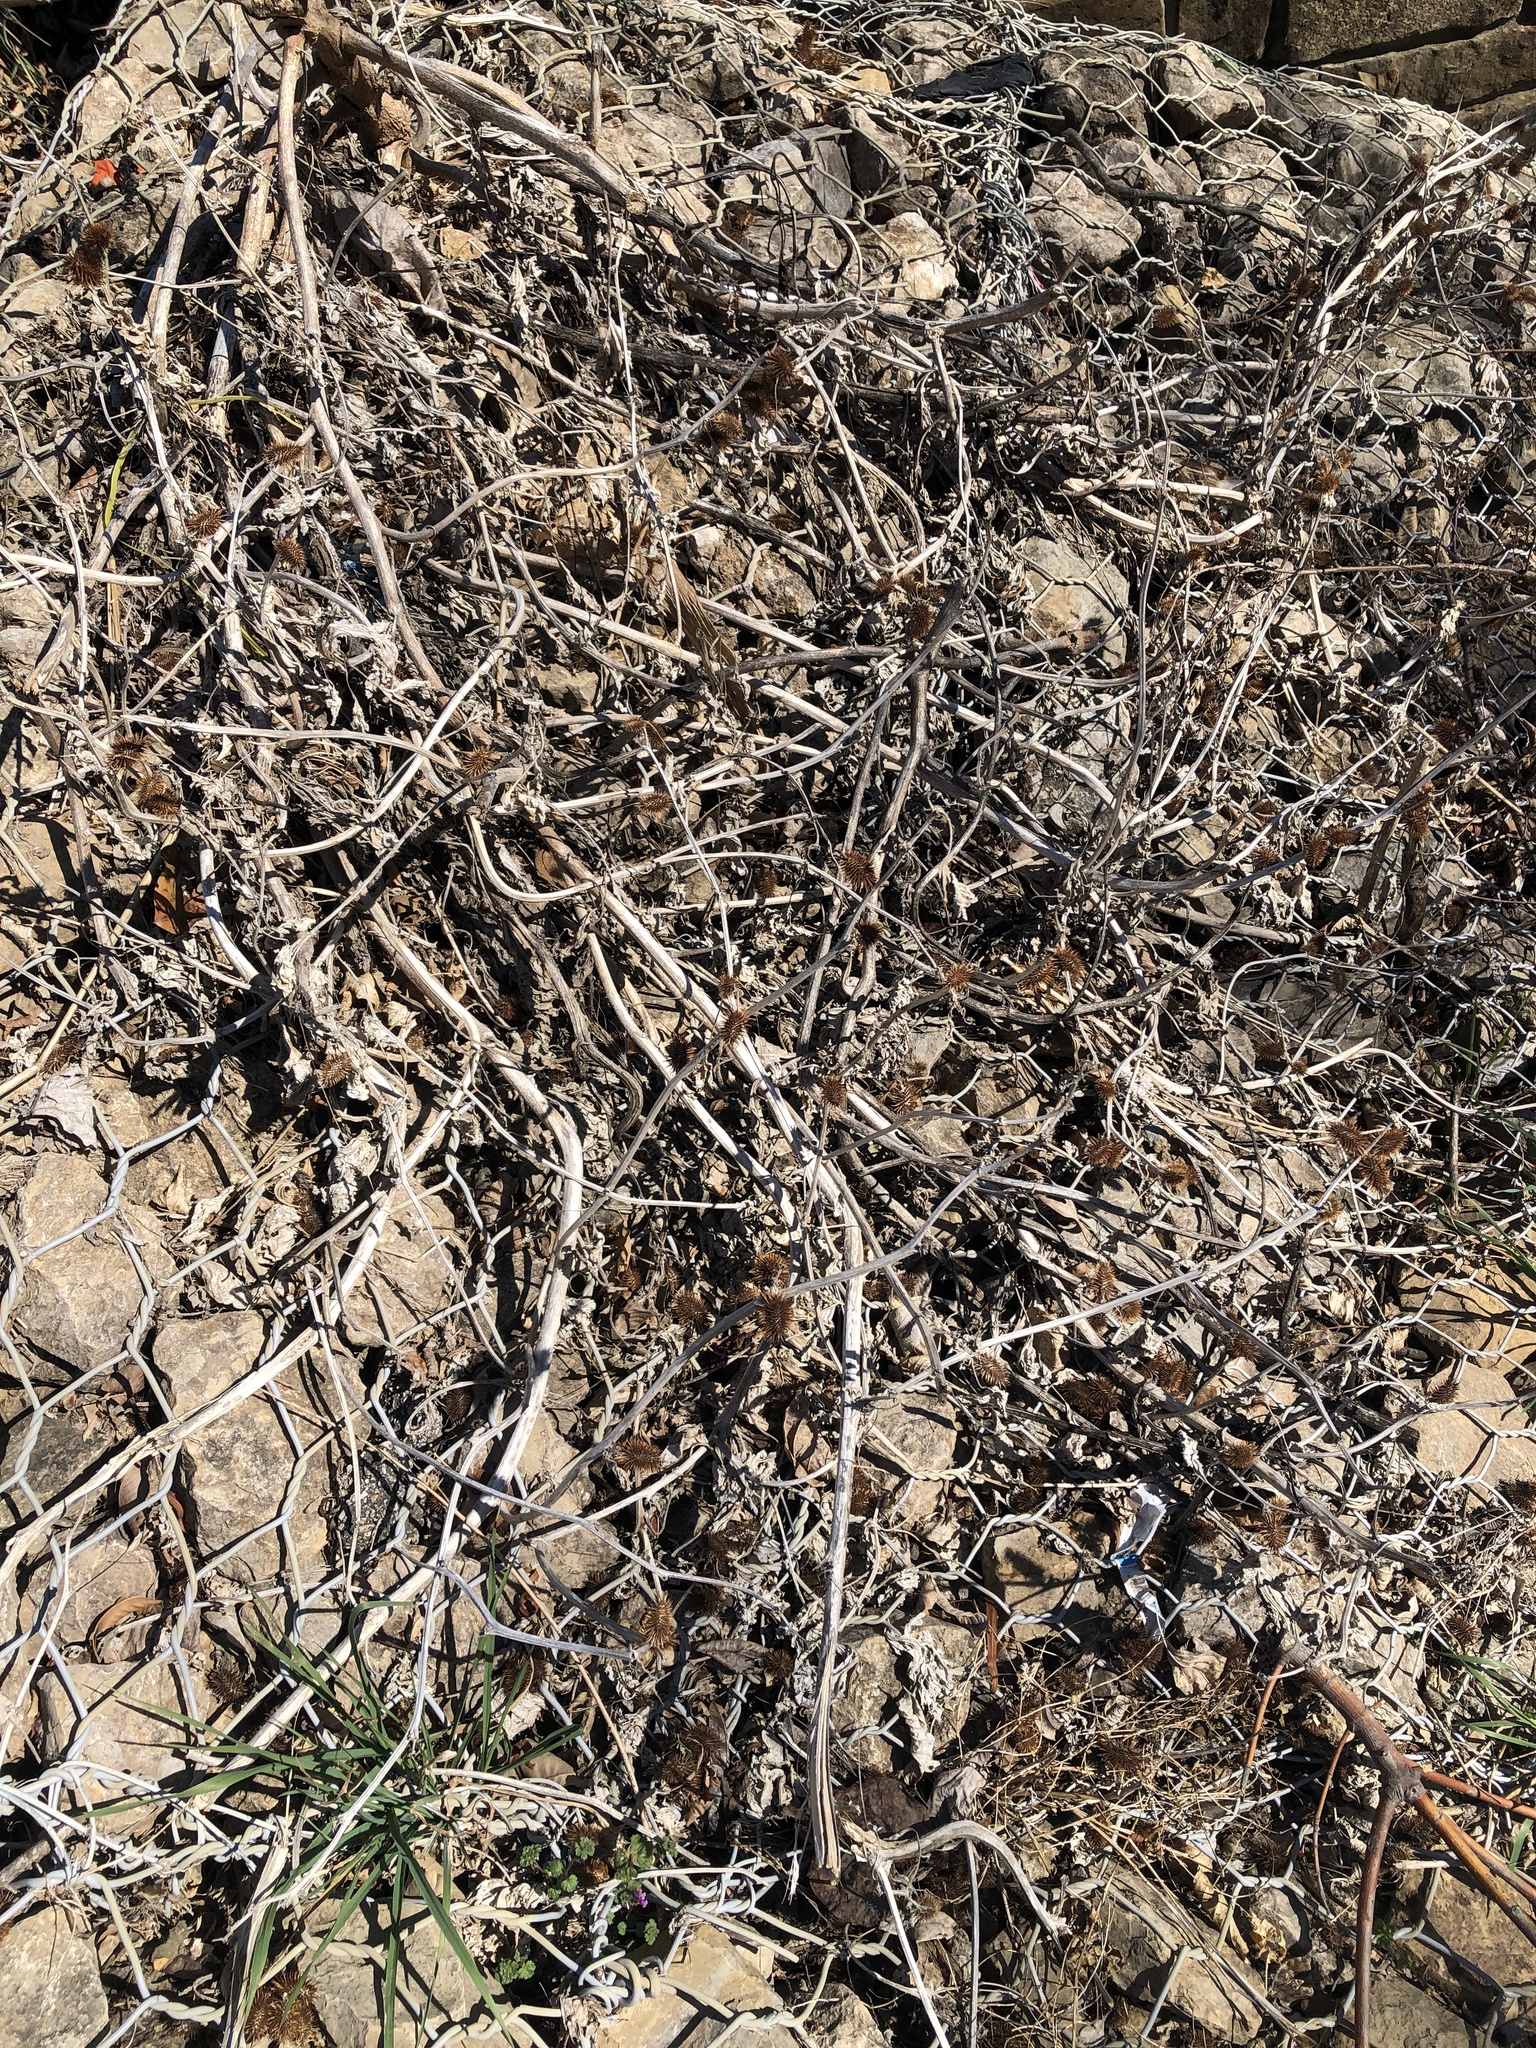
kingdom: Plantae
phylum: Tracheophyta
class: Magnoliopsida
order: Asterales
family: Asteraceae
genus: Xanthium
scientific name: Xanthium strumarium
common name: Rough cocklebur
